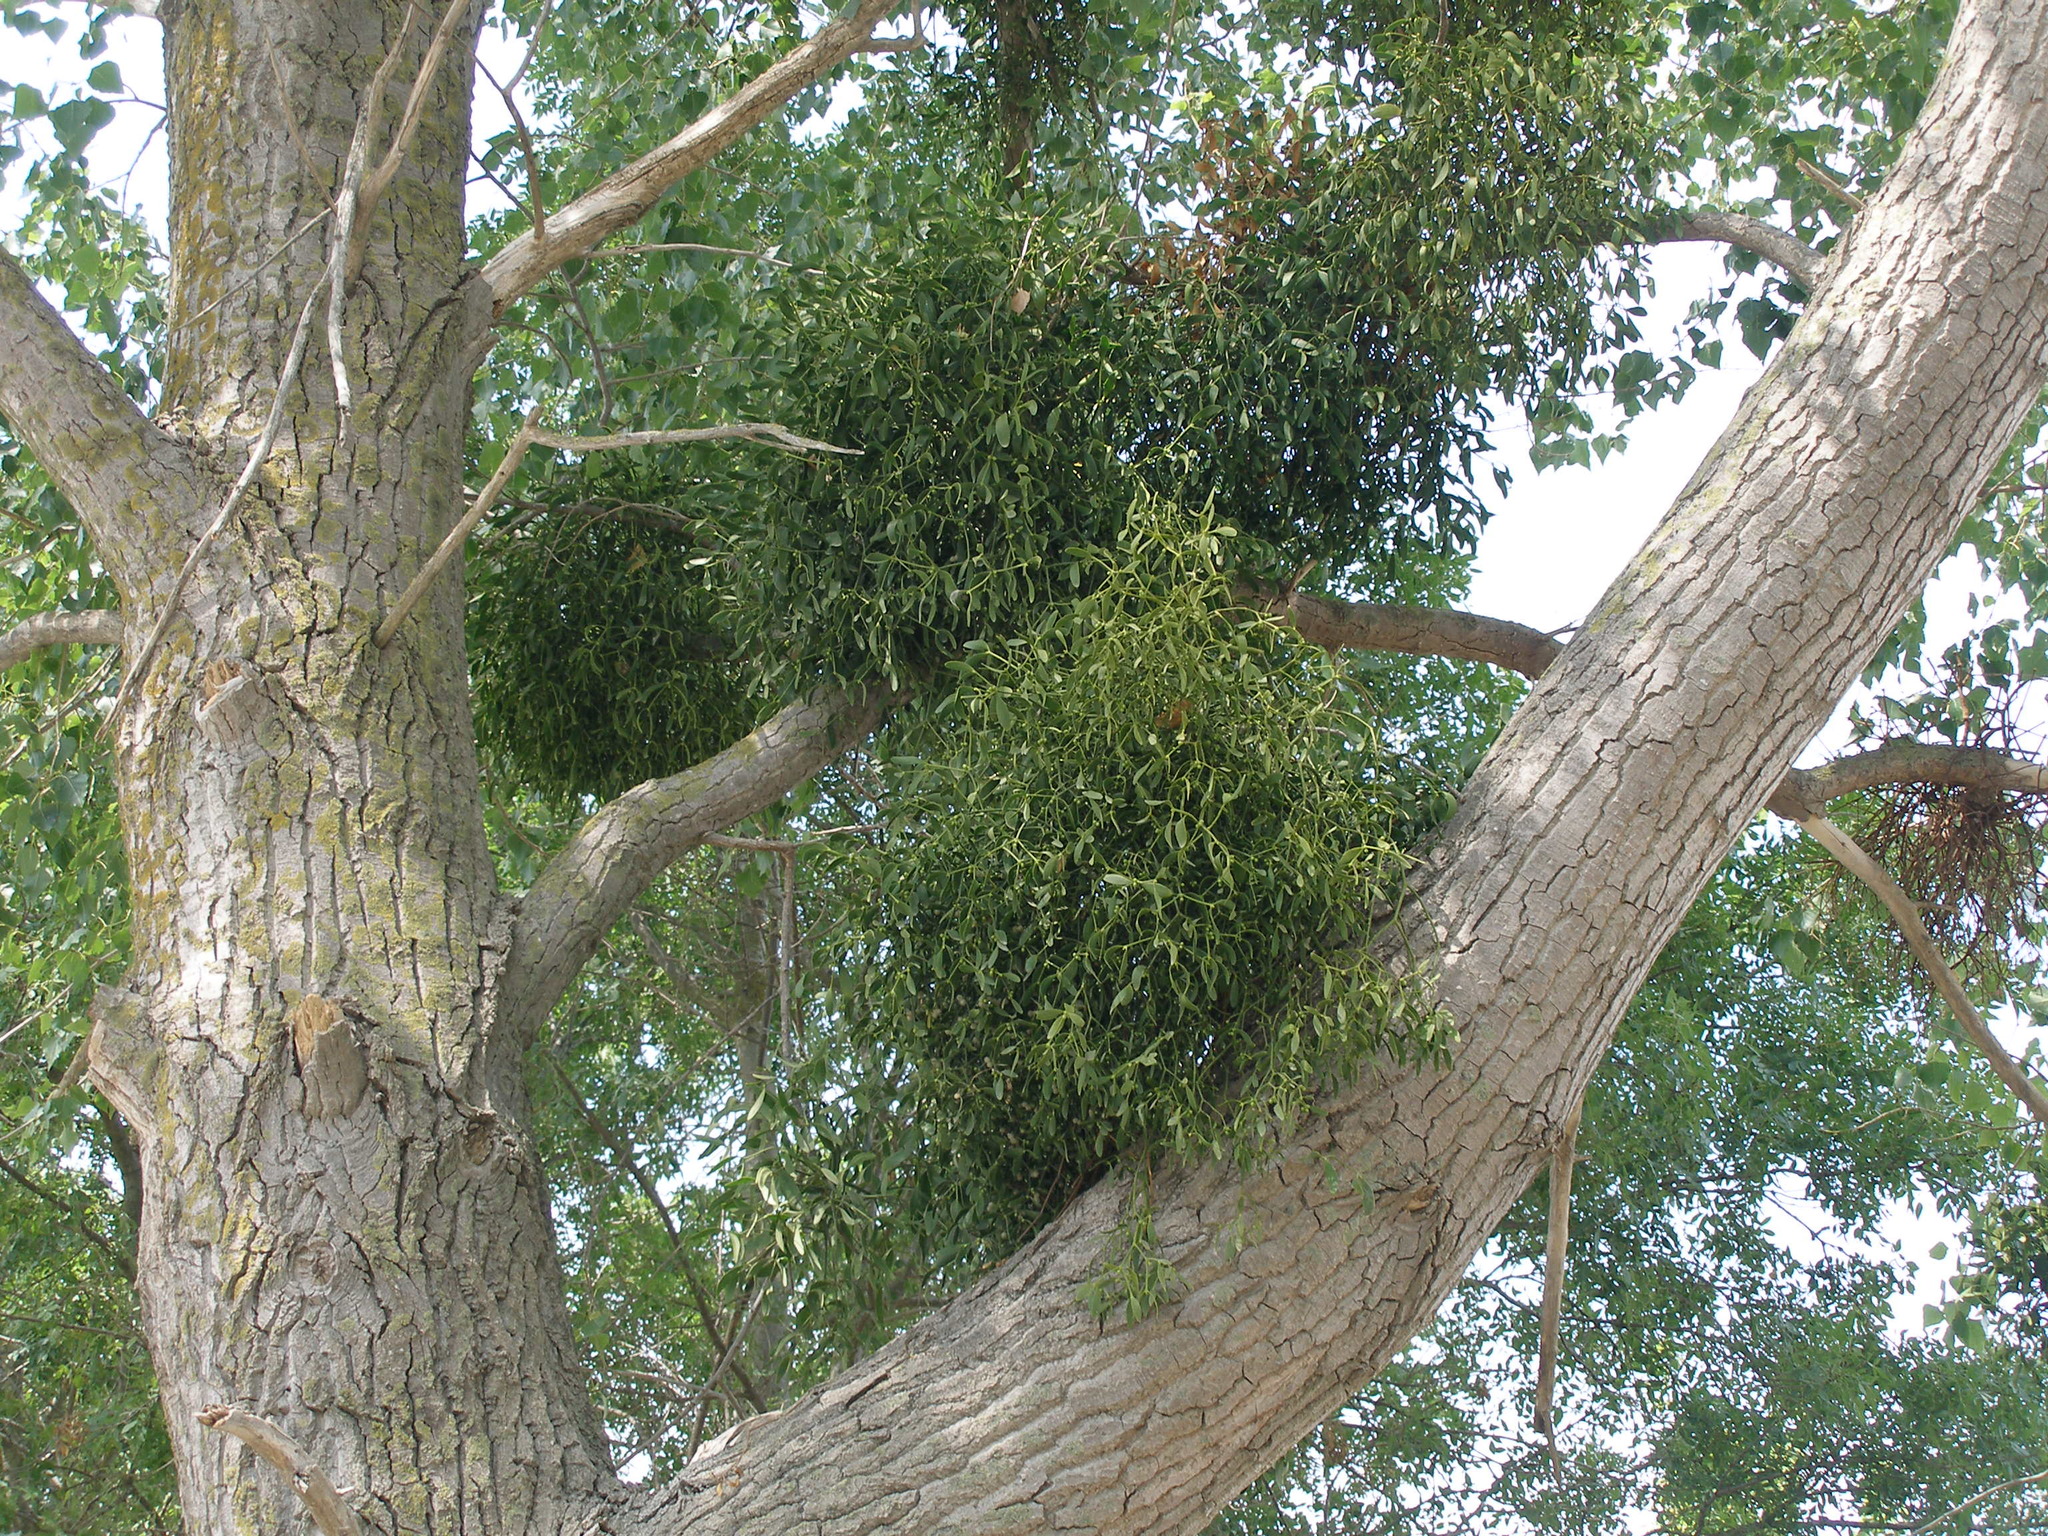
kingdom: Plantae
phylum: Tracheophyta
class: Magnoliopsida
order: Santalales
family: Viscaceae
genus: Viscum
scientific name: Viscum album
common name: Mistletoe
